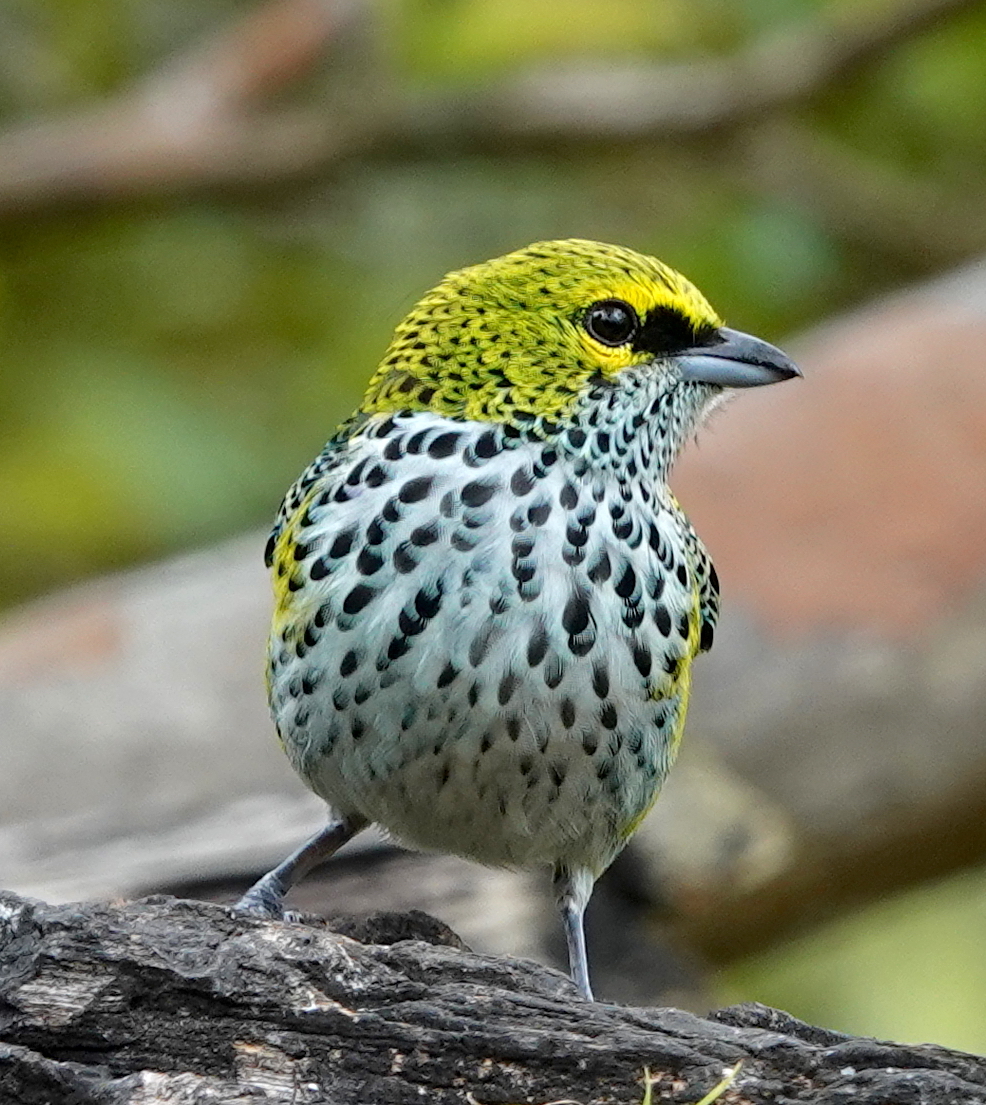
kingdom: Animalia
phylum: Chordata
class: Aves
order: Passeriformes
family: Thraupidae
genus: Ixothraupis
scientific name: Ixothraupis guttata
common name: Speckled tanager
